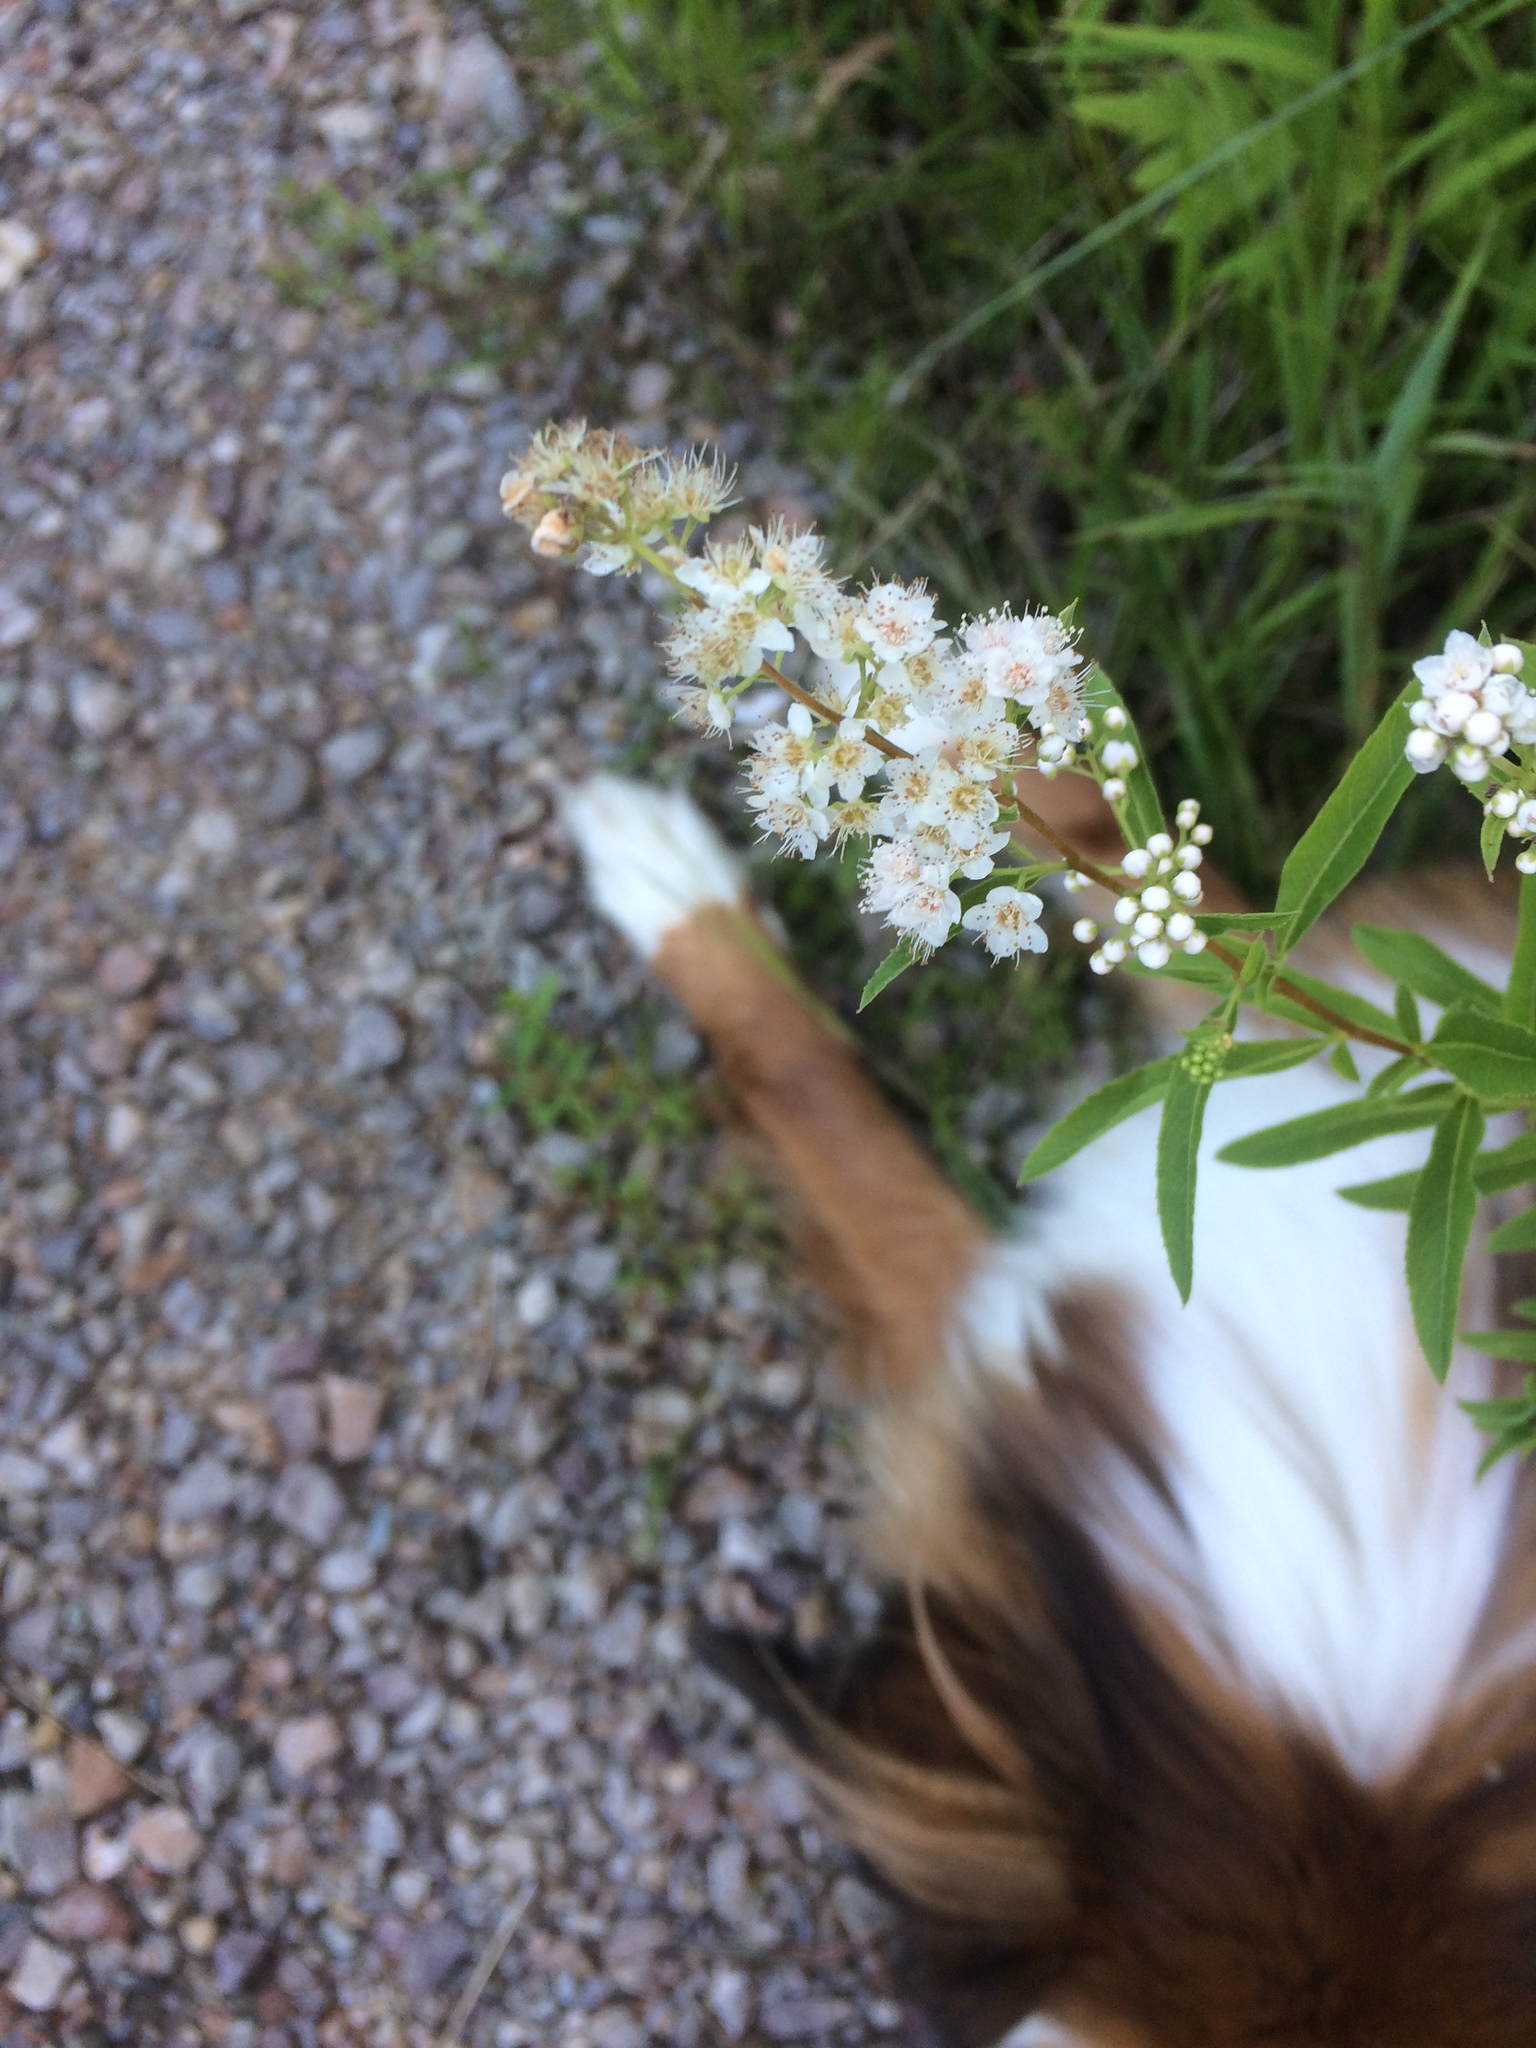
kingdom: Plantae
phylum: Tracheophyta
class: Magnoliopsida
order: Rosales
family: Rosaceae
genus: Spiraea
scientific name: Spiraea alba
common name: Pale bridewort
